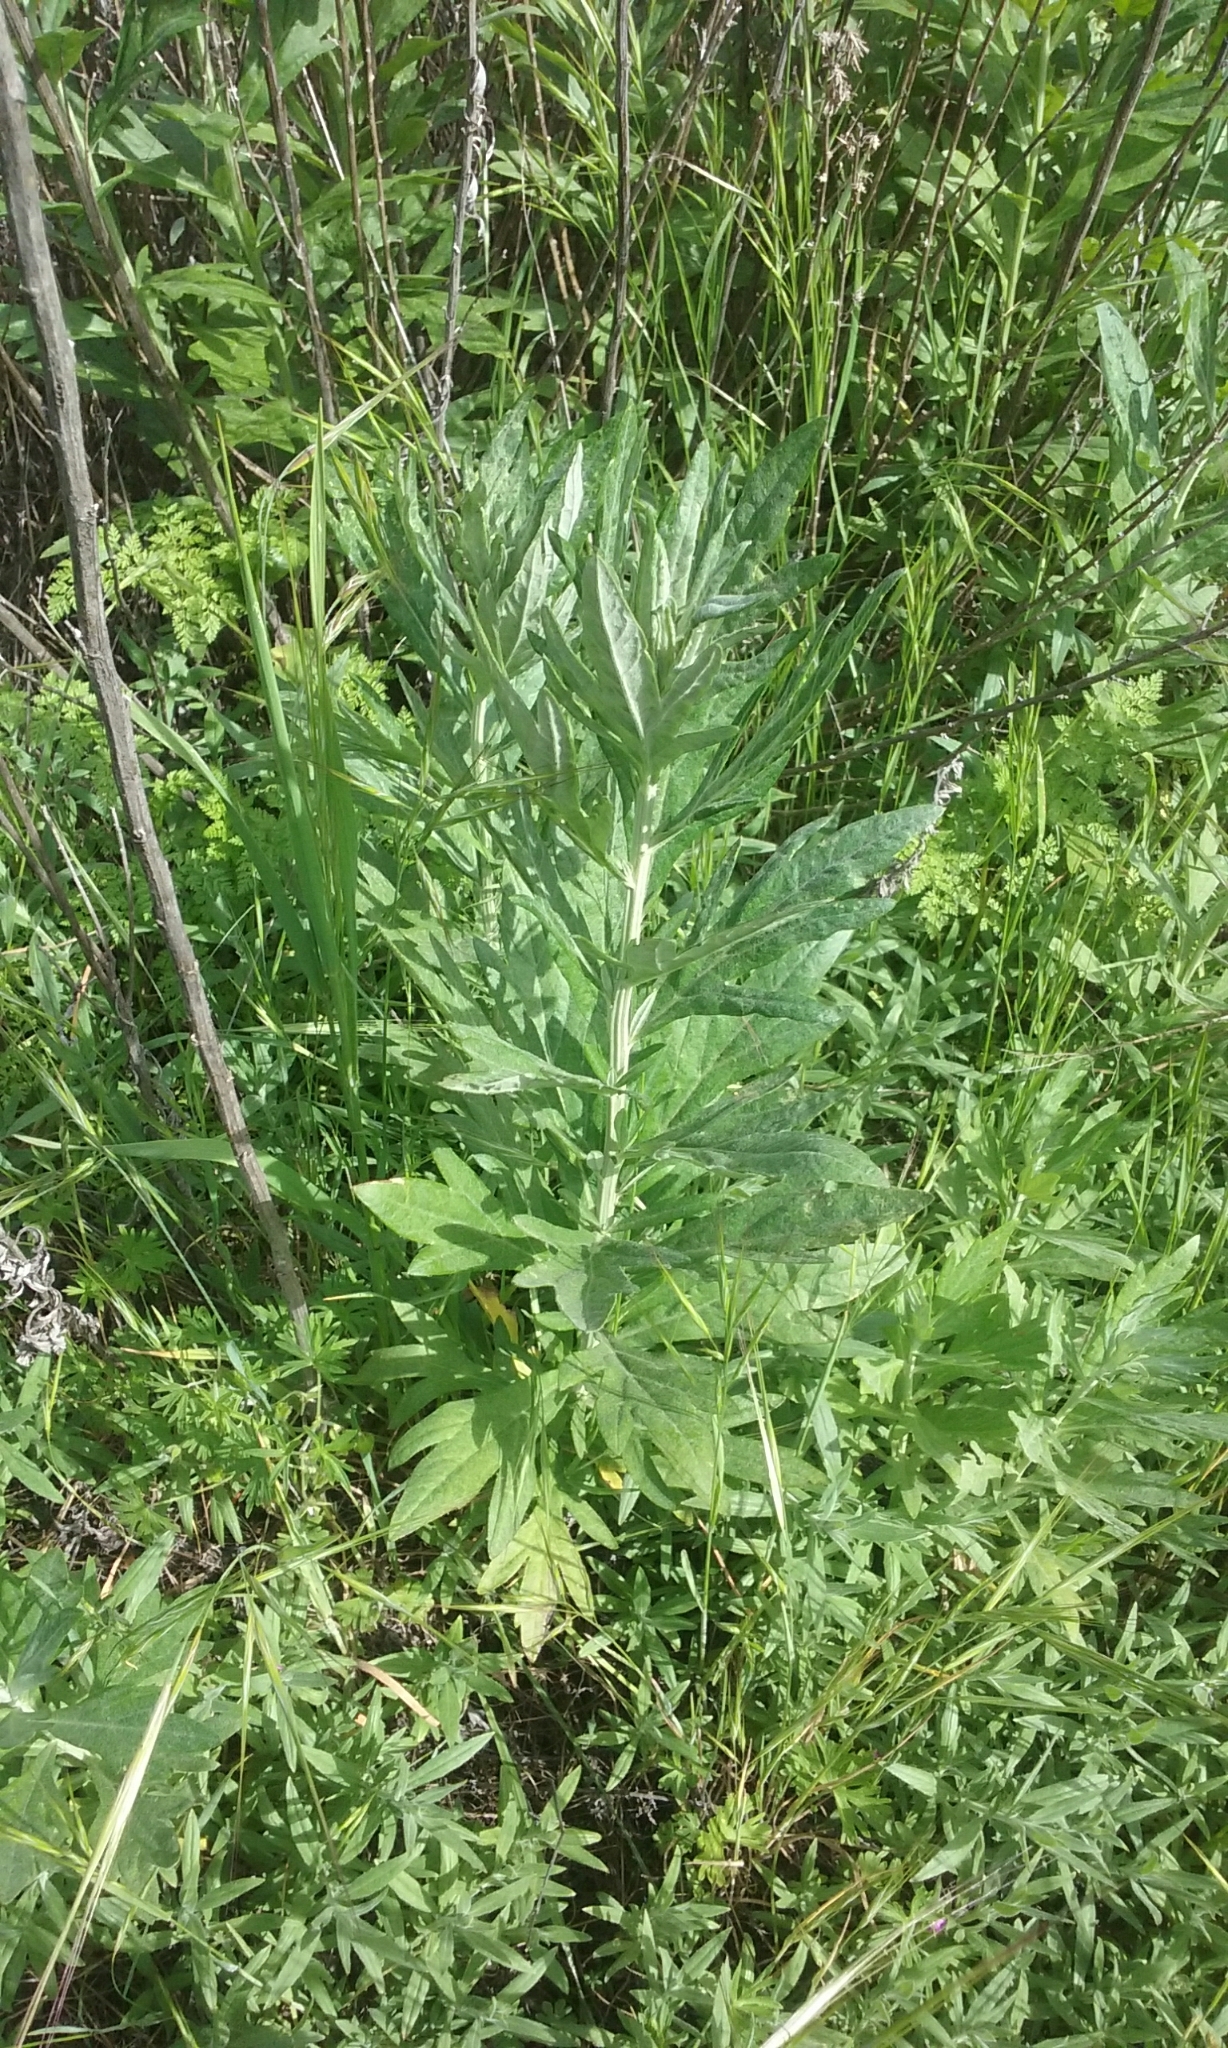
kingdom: Plantae
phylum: Tracheophyta
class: Magnoliopsida
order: Asterales
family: Asteraceae
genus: Artemisia
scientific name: Artemisia douglasiana
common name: Northwest mugwort
